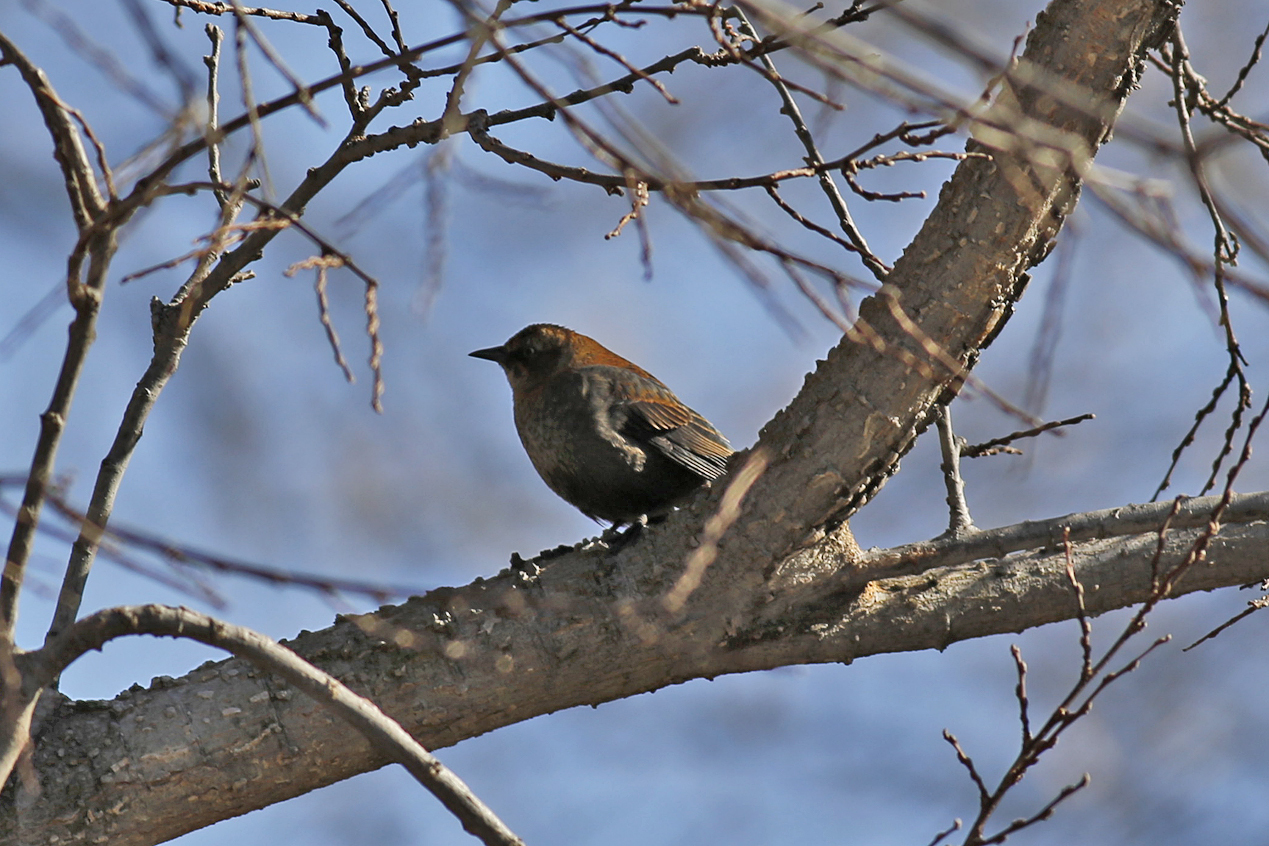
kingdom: Animalia
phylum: Chordata
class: Aves
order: Passeriformes
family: Icteridae
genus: Euphagus
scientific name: Euphagus carolinus
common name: Rusty blackbird
